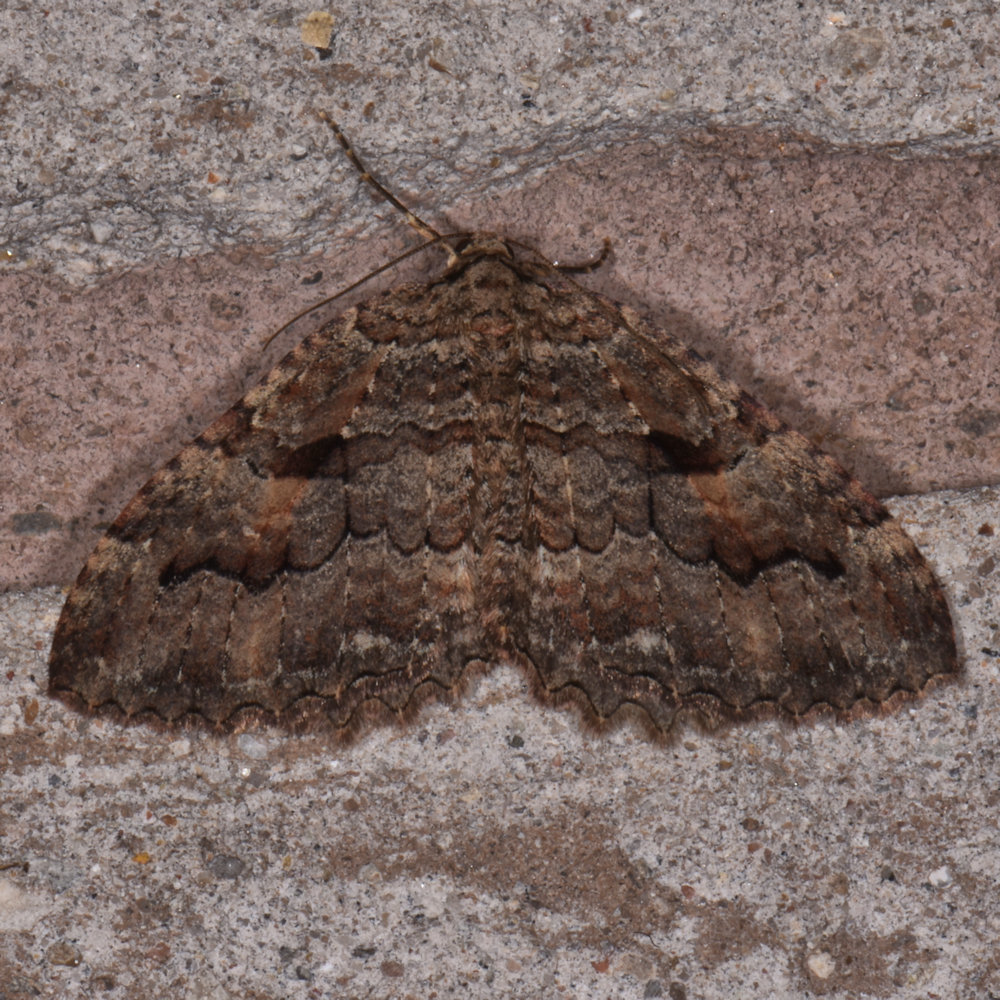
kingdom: Animalia
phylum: Arthropoda
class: Insecta
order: Lepidoptera
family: Geometridae
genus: Triphosa
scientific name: Triphosa haesitata
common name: Tissue moth
